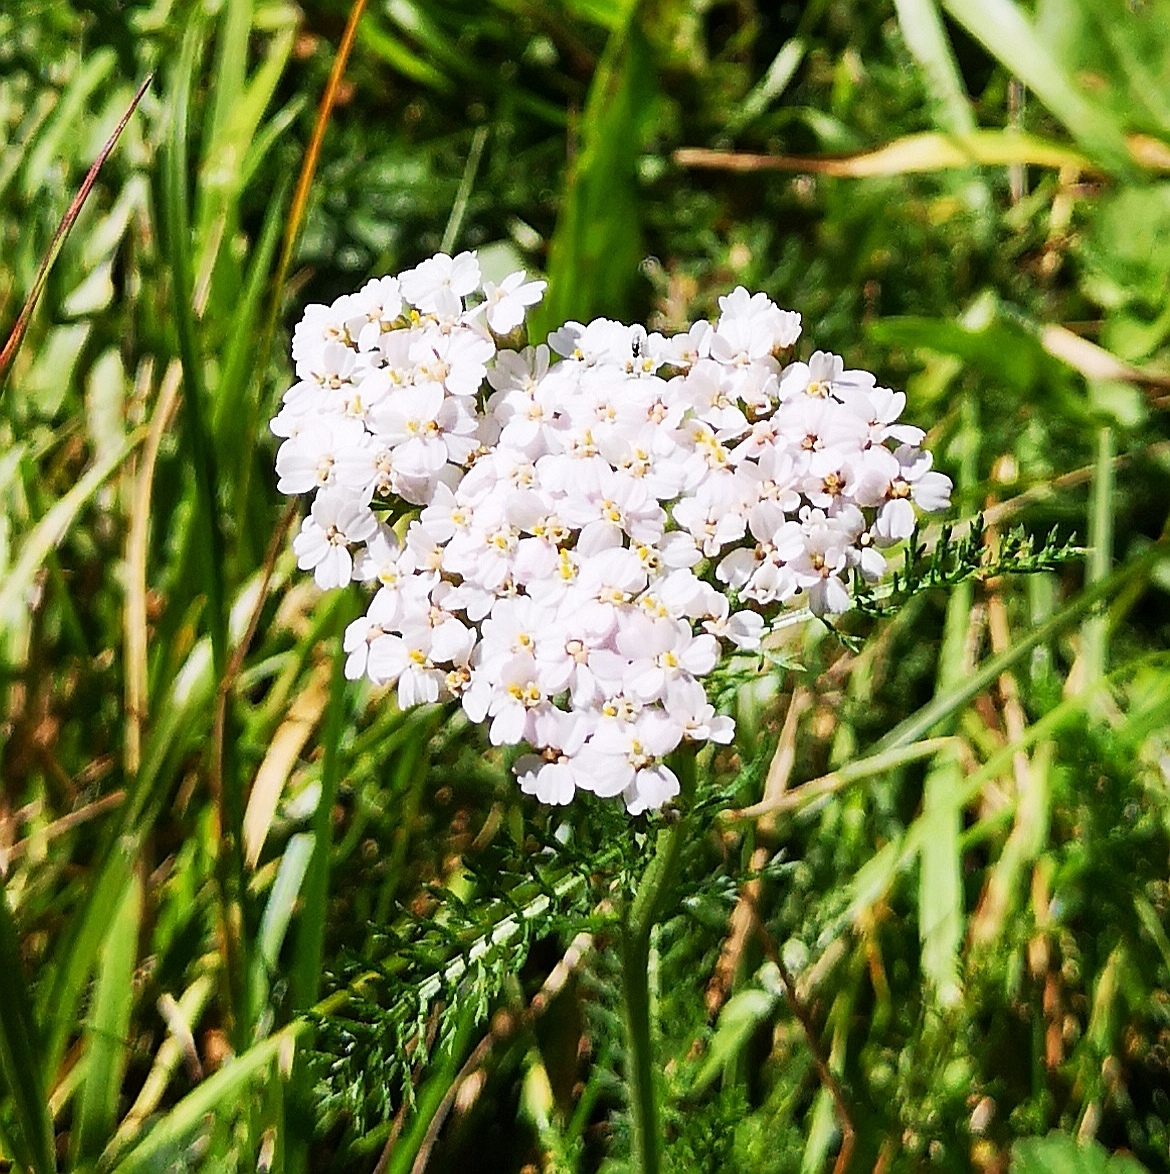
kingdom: Plantae
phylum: Tracheophyta
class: Magnoliopsida
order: Asterales
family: Asteraceae
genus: Achillea
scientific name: Achillea millefolium
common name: Yarrow
